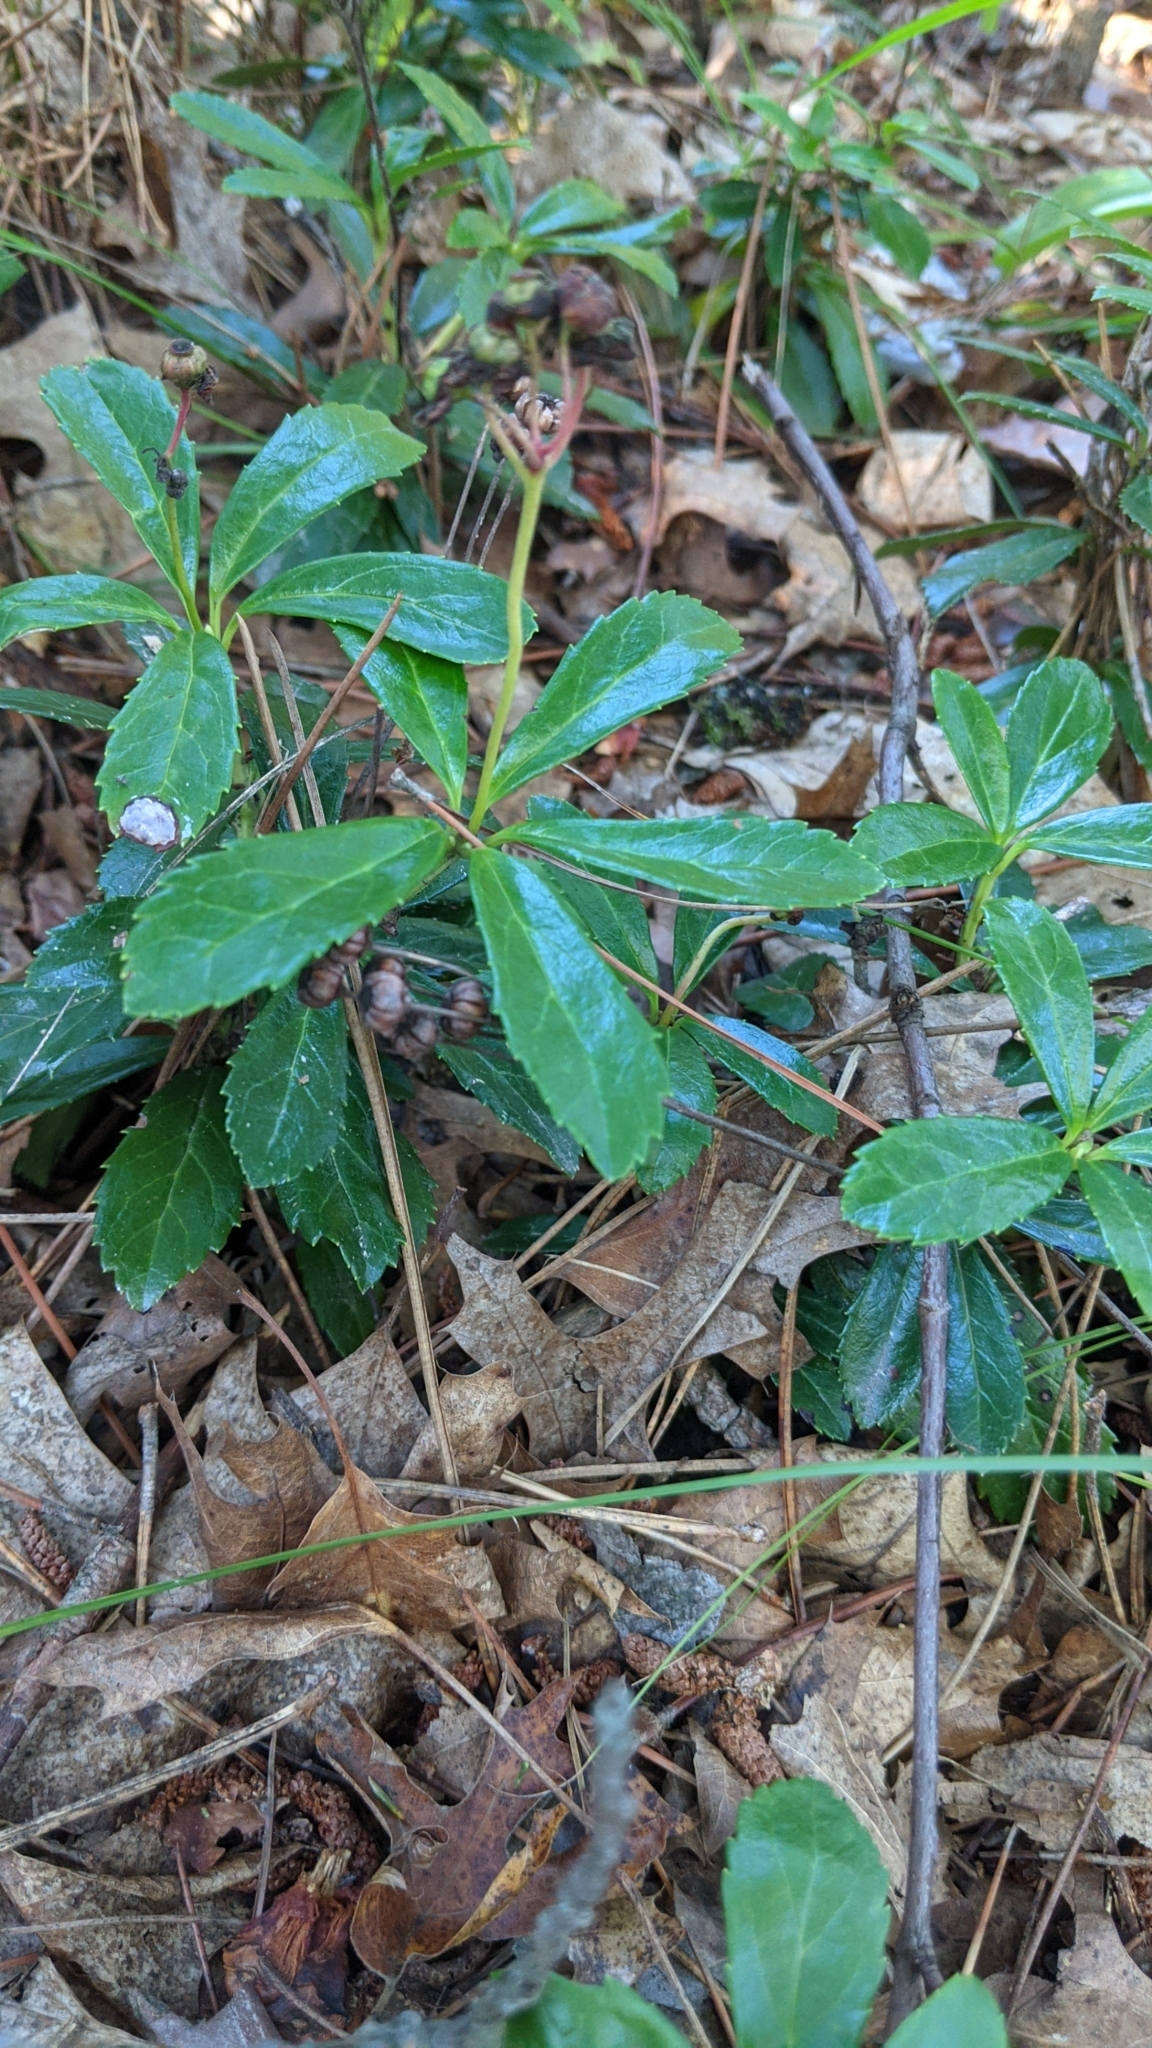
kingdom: Plantae
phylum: Tracheophyta
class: Magnoliopsida
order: Ericales
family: Ericaceae
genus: Chimaphila
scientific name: Chimaphila umbellata
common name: Pipsissewa
